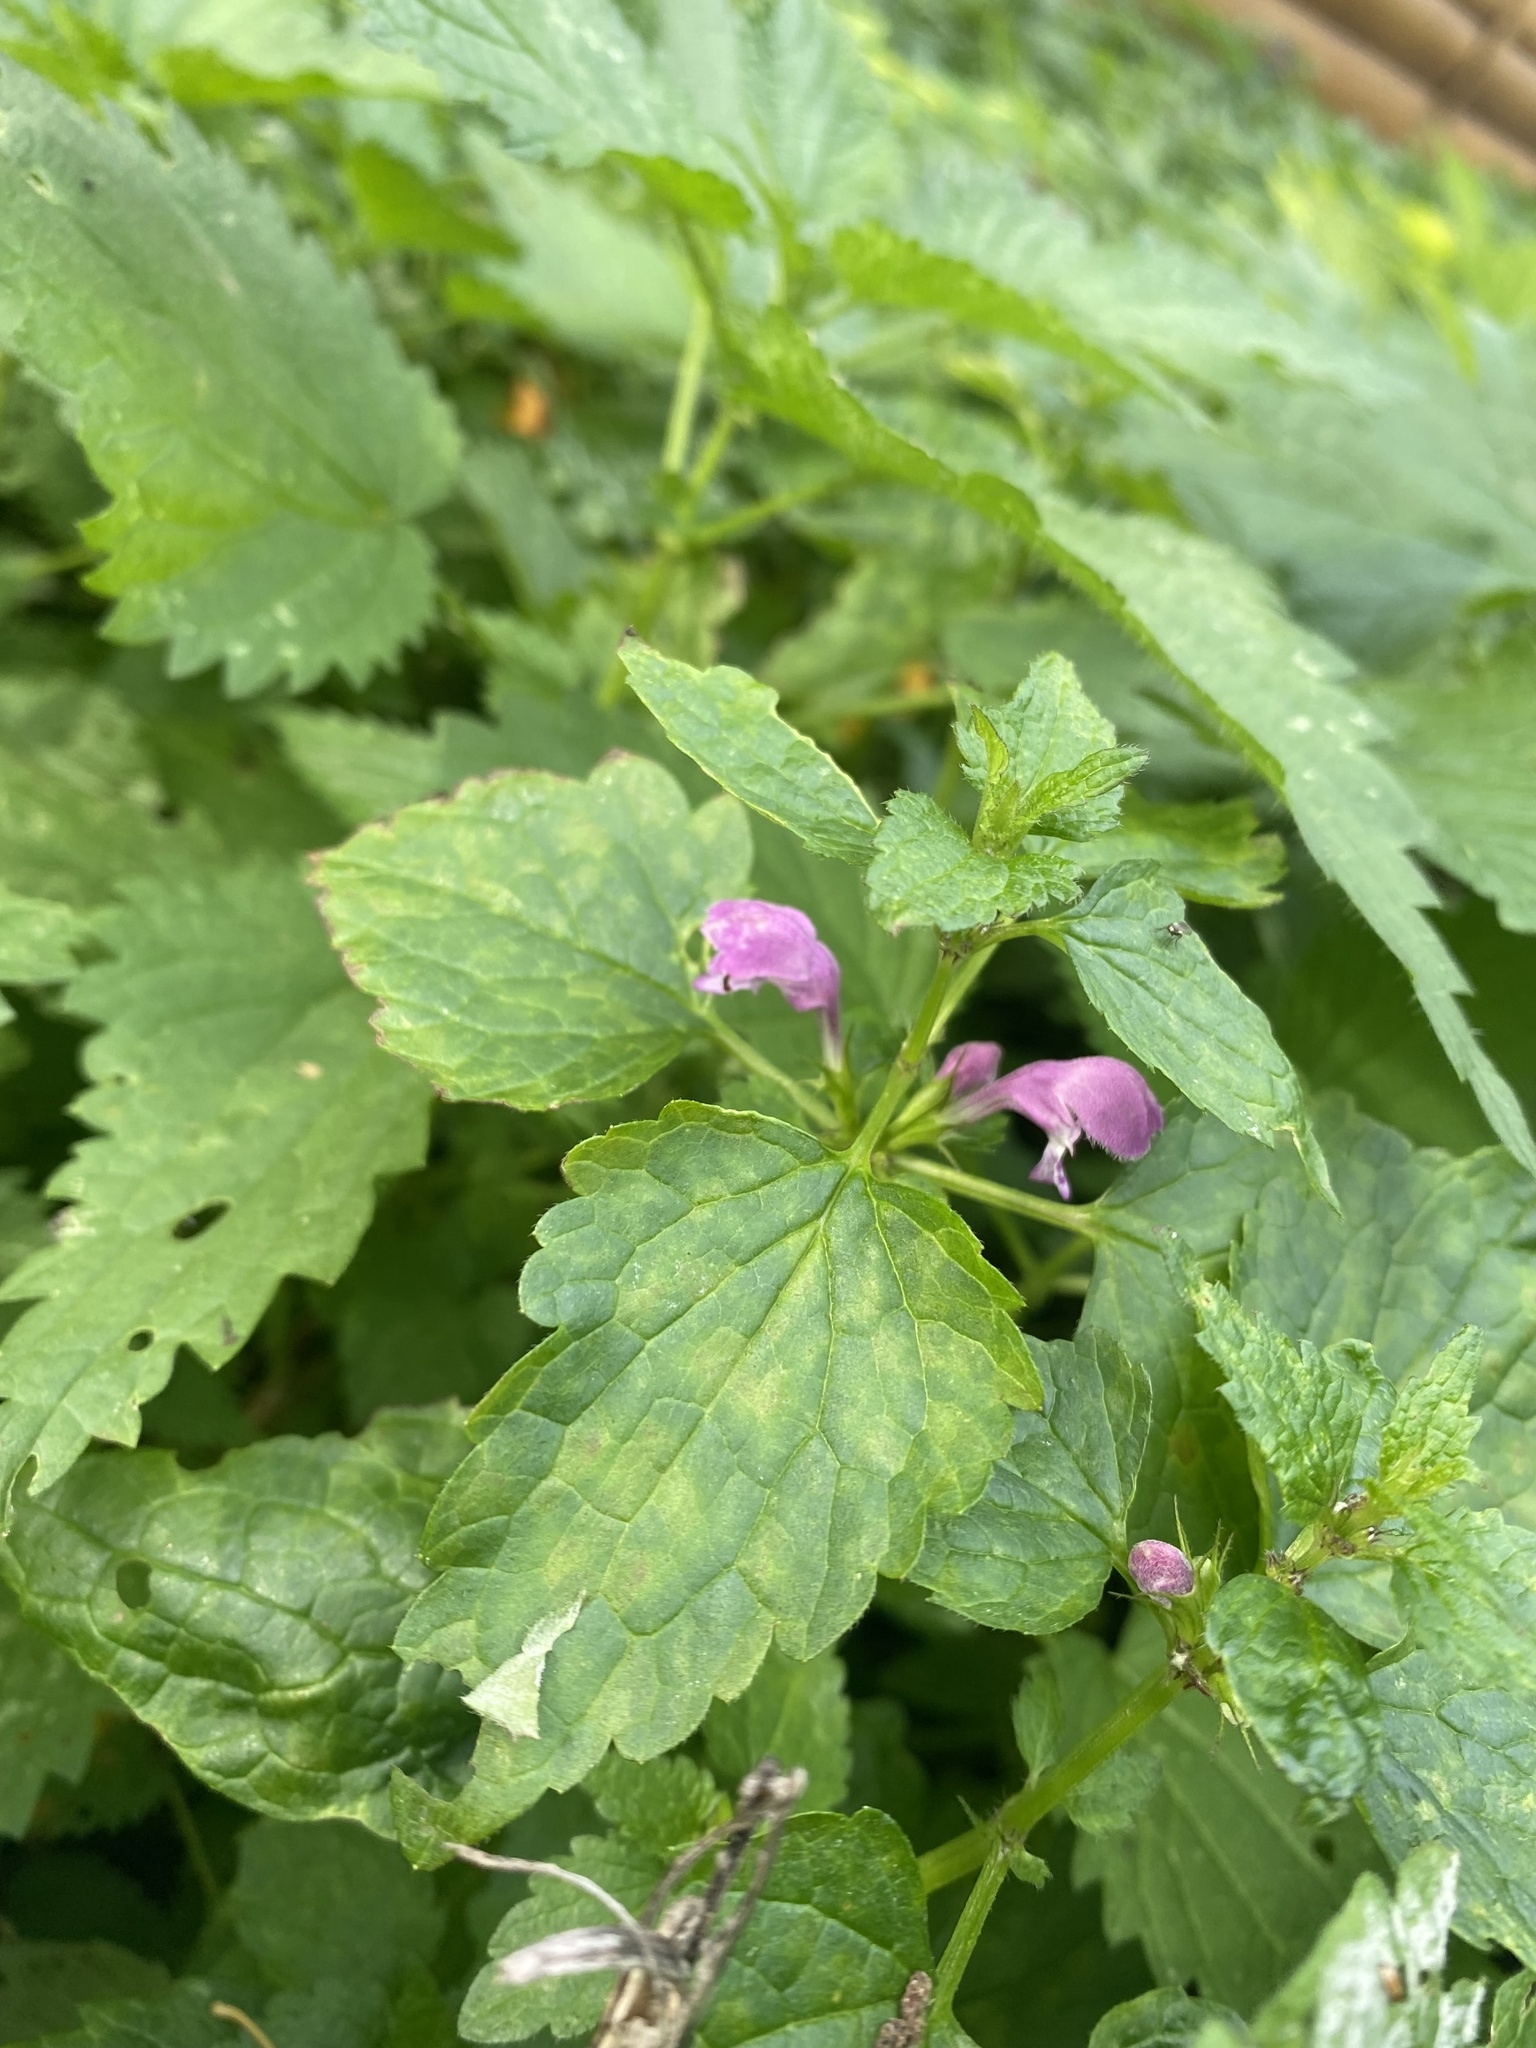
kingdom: Plantae
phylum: Tracheophyta
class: Magnoliopsida
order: Lamiales
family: Lamiaceae
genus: Lamium
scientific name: Lamium maculatum
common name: Spotted dead-nettle
